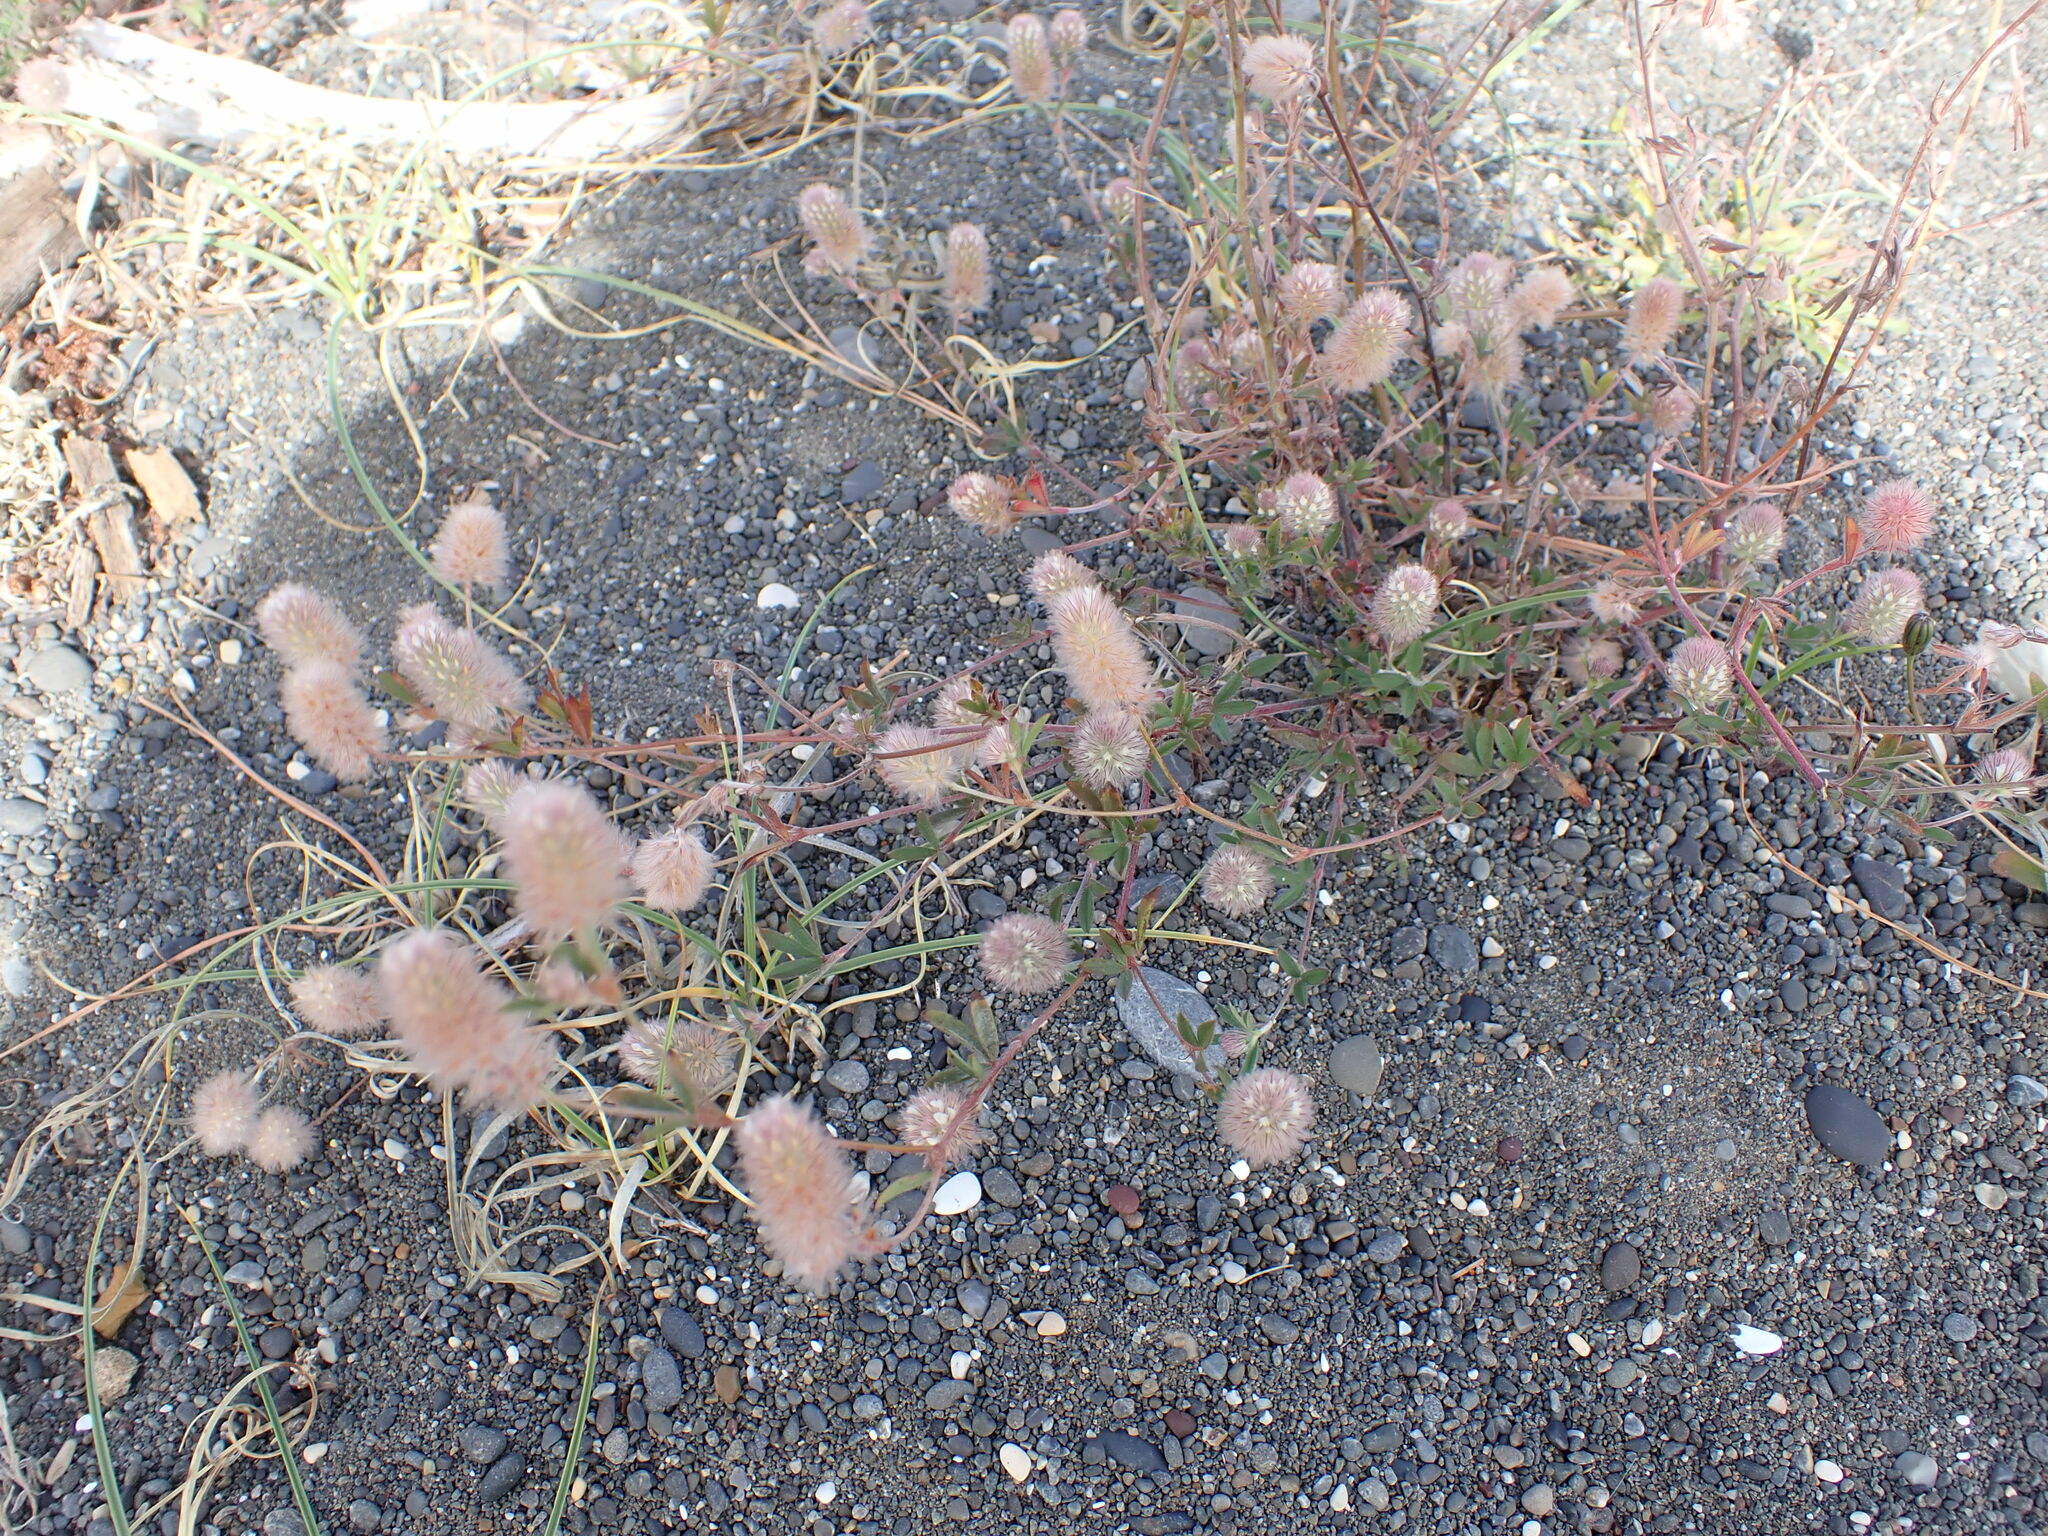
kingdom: Plantae
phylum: Tracheophyta
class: Magnoliopsida
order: Fabales
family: Fabaceae
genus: Trifolium
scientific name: Trifolium arvense
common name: Hare's-foot clover
